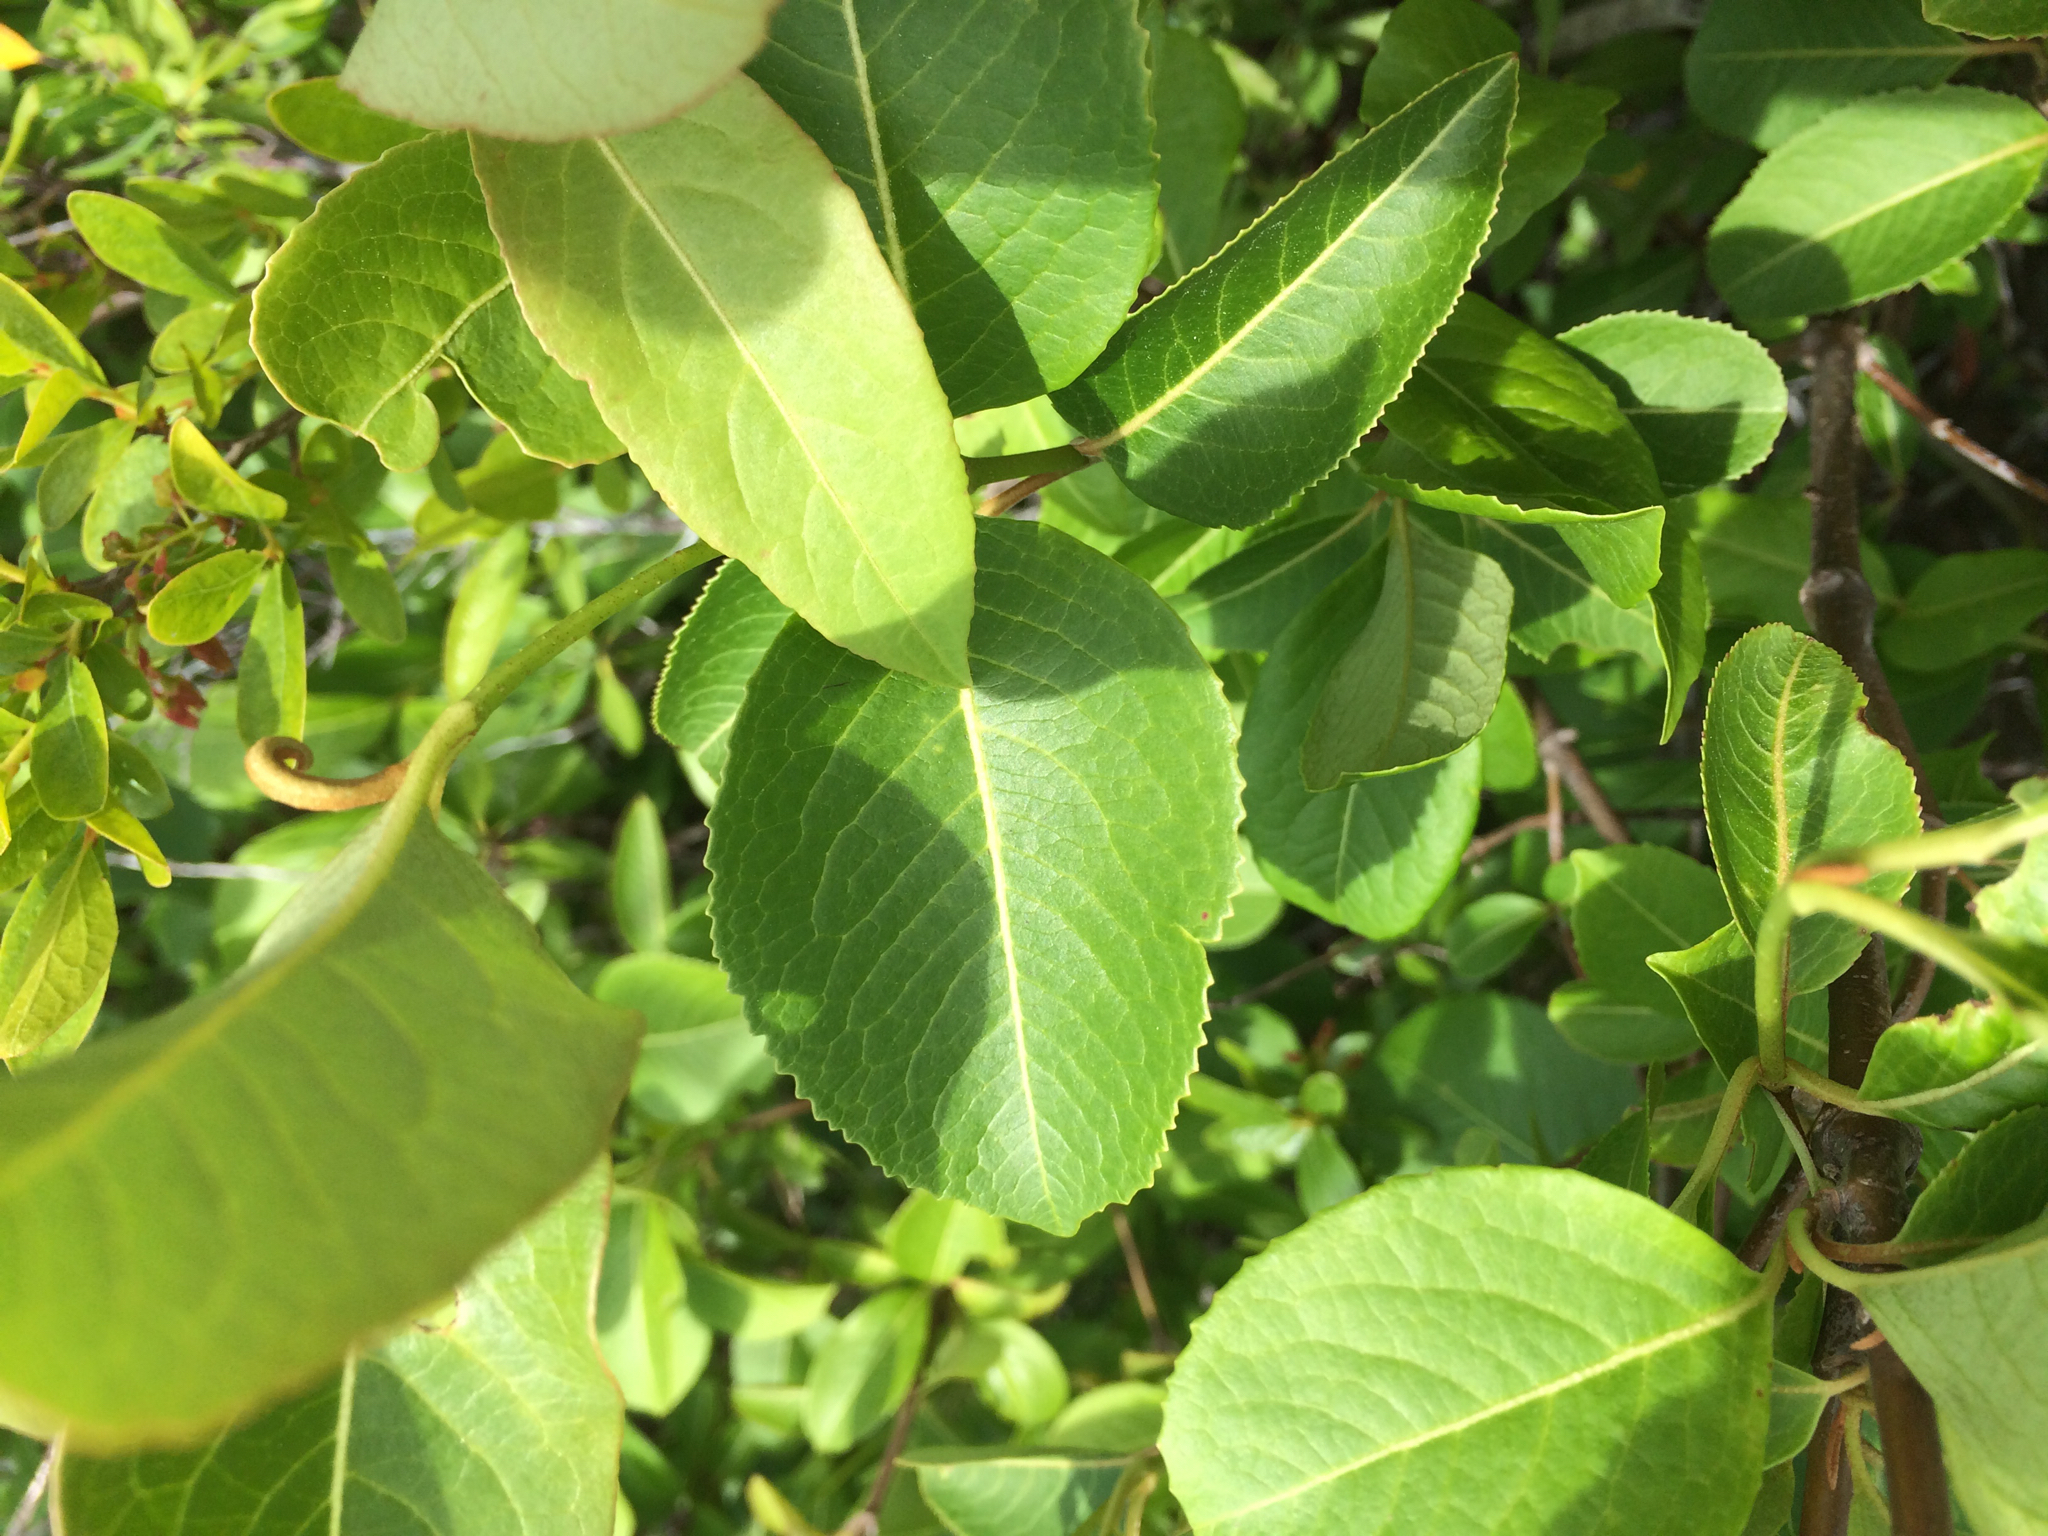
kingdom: Plantae
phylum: Tracheophyta
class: Magnoliopsida
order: Dipsacales
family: Viburnaceae
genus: Viburnum
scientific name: Viburnum cassinoides
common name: Swamp haw
